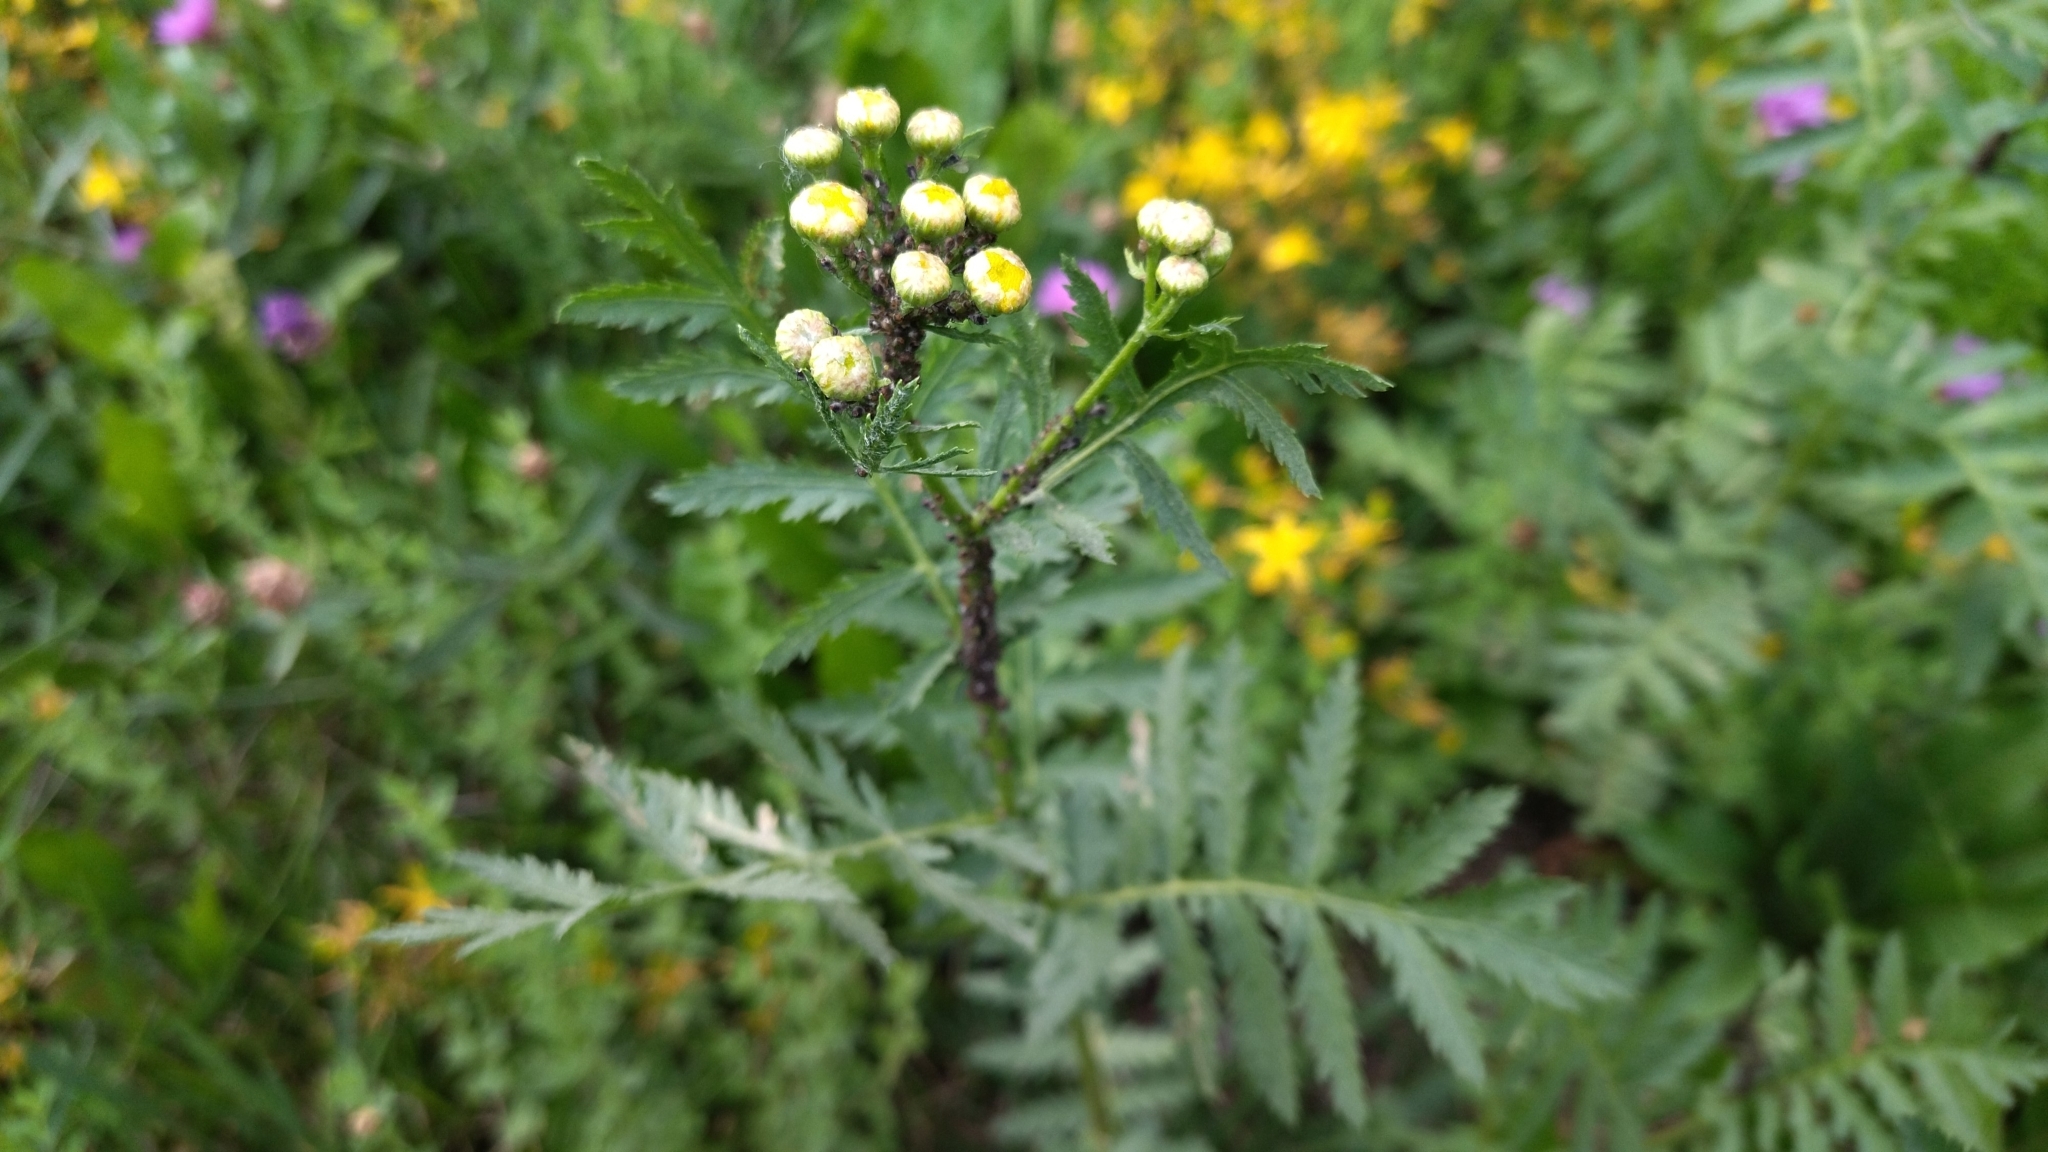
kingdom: Plantae
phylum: Tracheophyta
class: Magnoliopsida
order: Asterales
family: Asteraceae
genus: Tanacetum
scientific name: Tanacetum vulgare
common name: Common tansy
